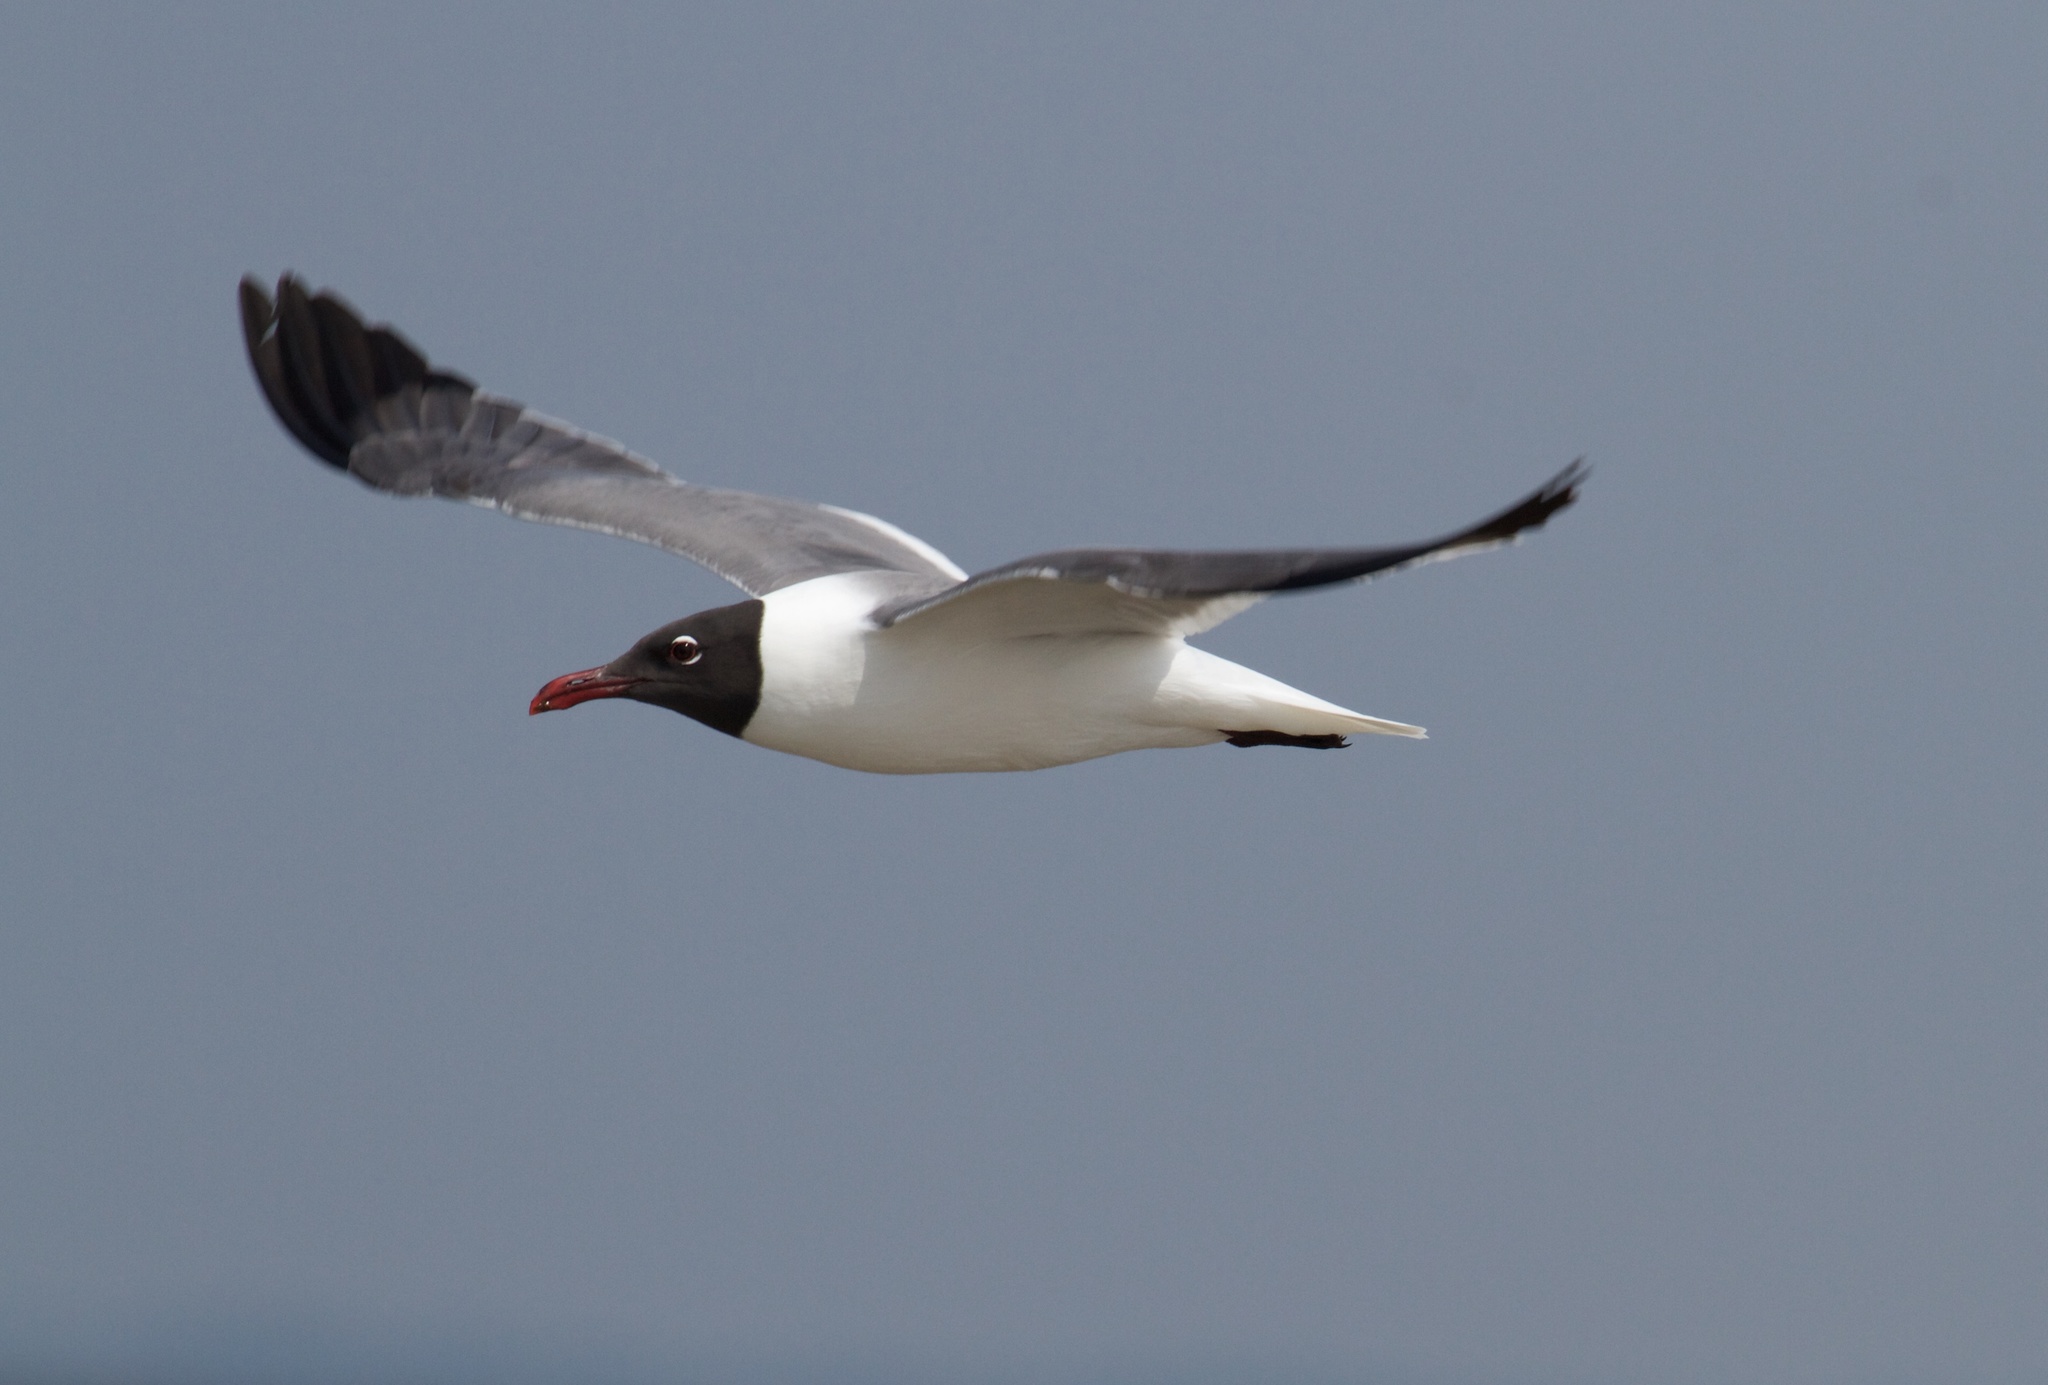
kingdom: Animalia
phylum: Chordata
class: Aves
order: Charadriiformes
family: Laridae
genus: Leucophaeus
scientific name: Leucophaeus atricilla
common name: Laughing gull
